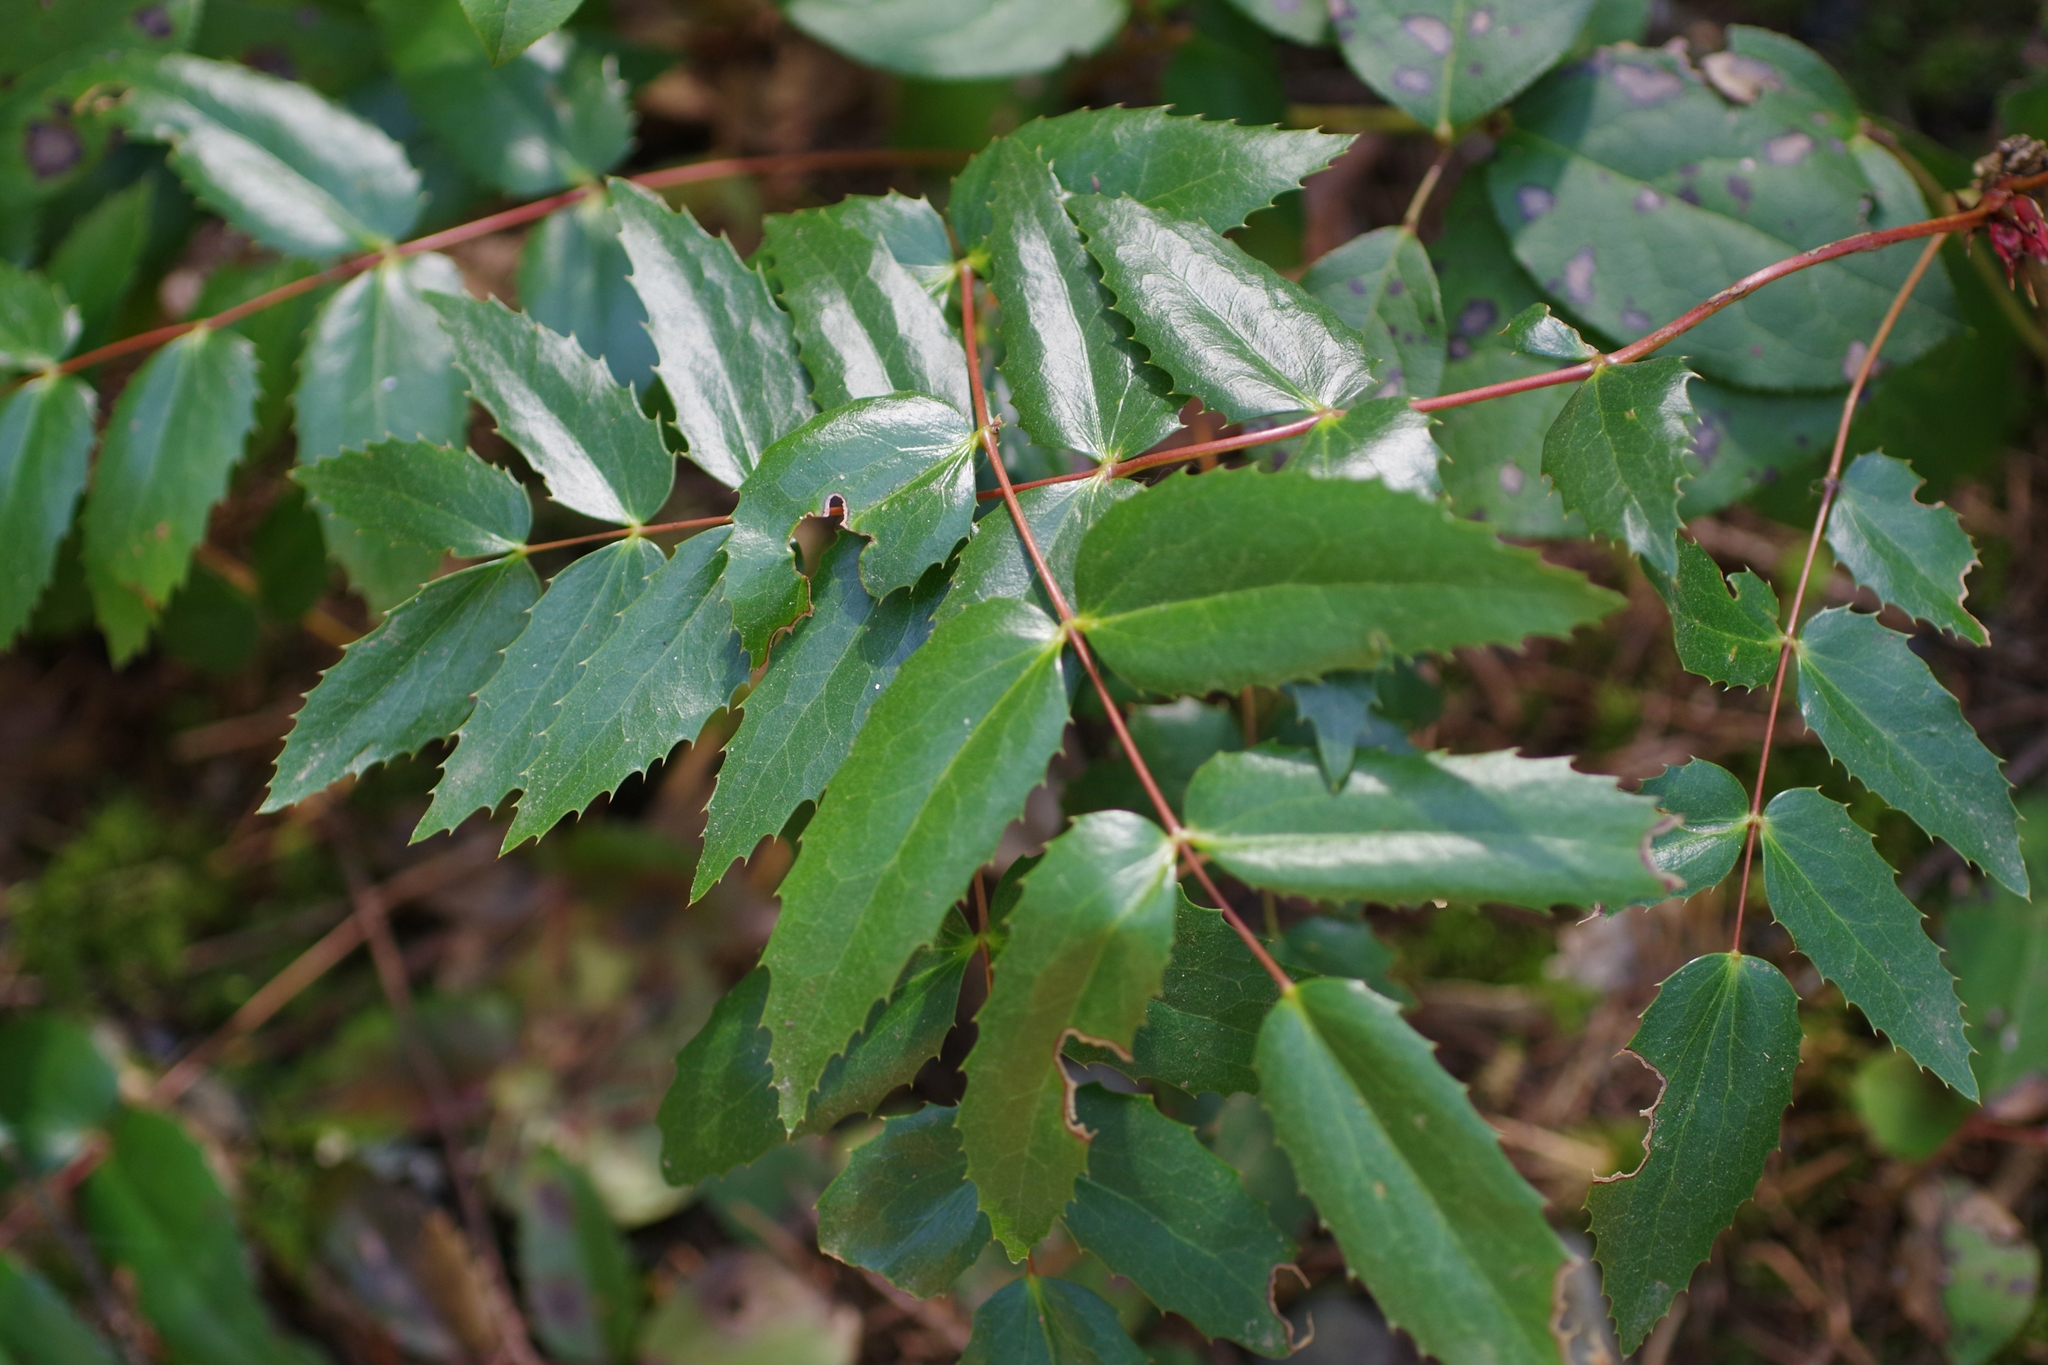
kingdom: Plantae
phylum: Tracheophyta
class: Magnoliopsida
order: Ranunculales
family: Berberidaceae
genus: Mahonia
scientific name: Mahonia nervosa
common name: Cascade oregon-grape
